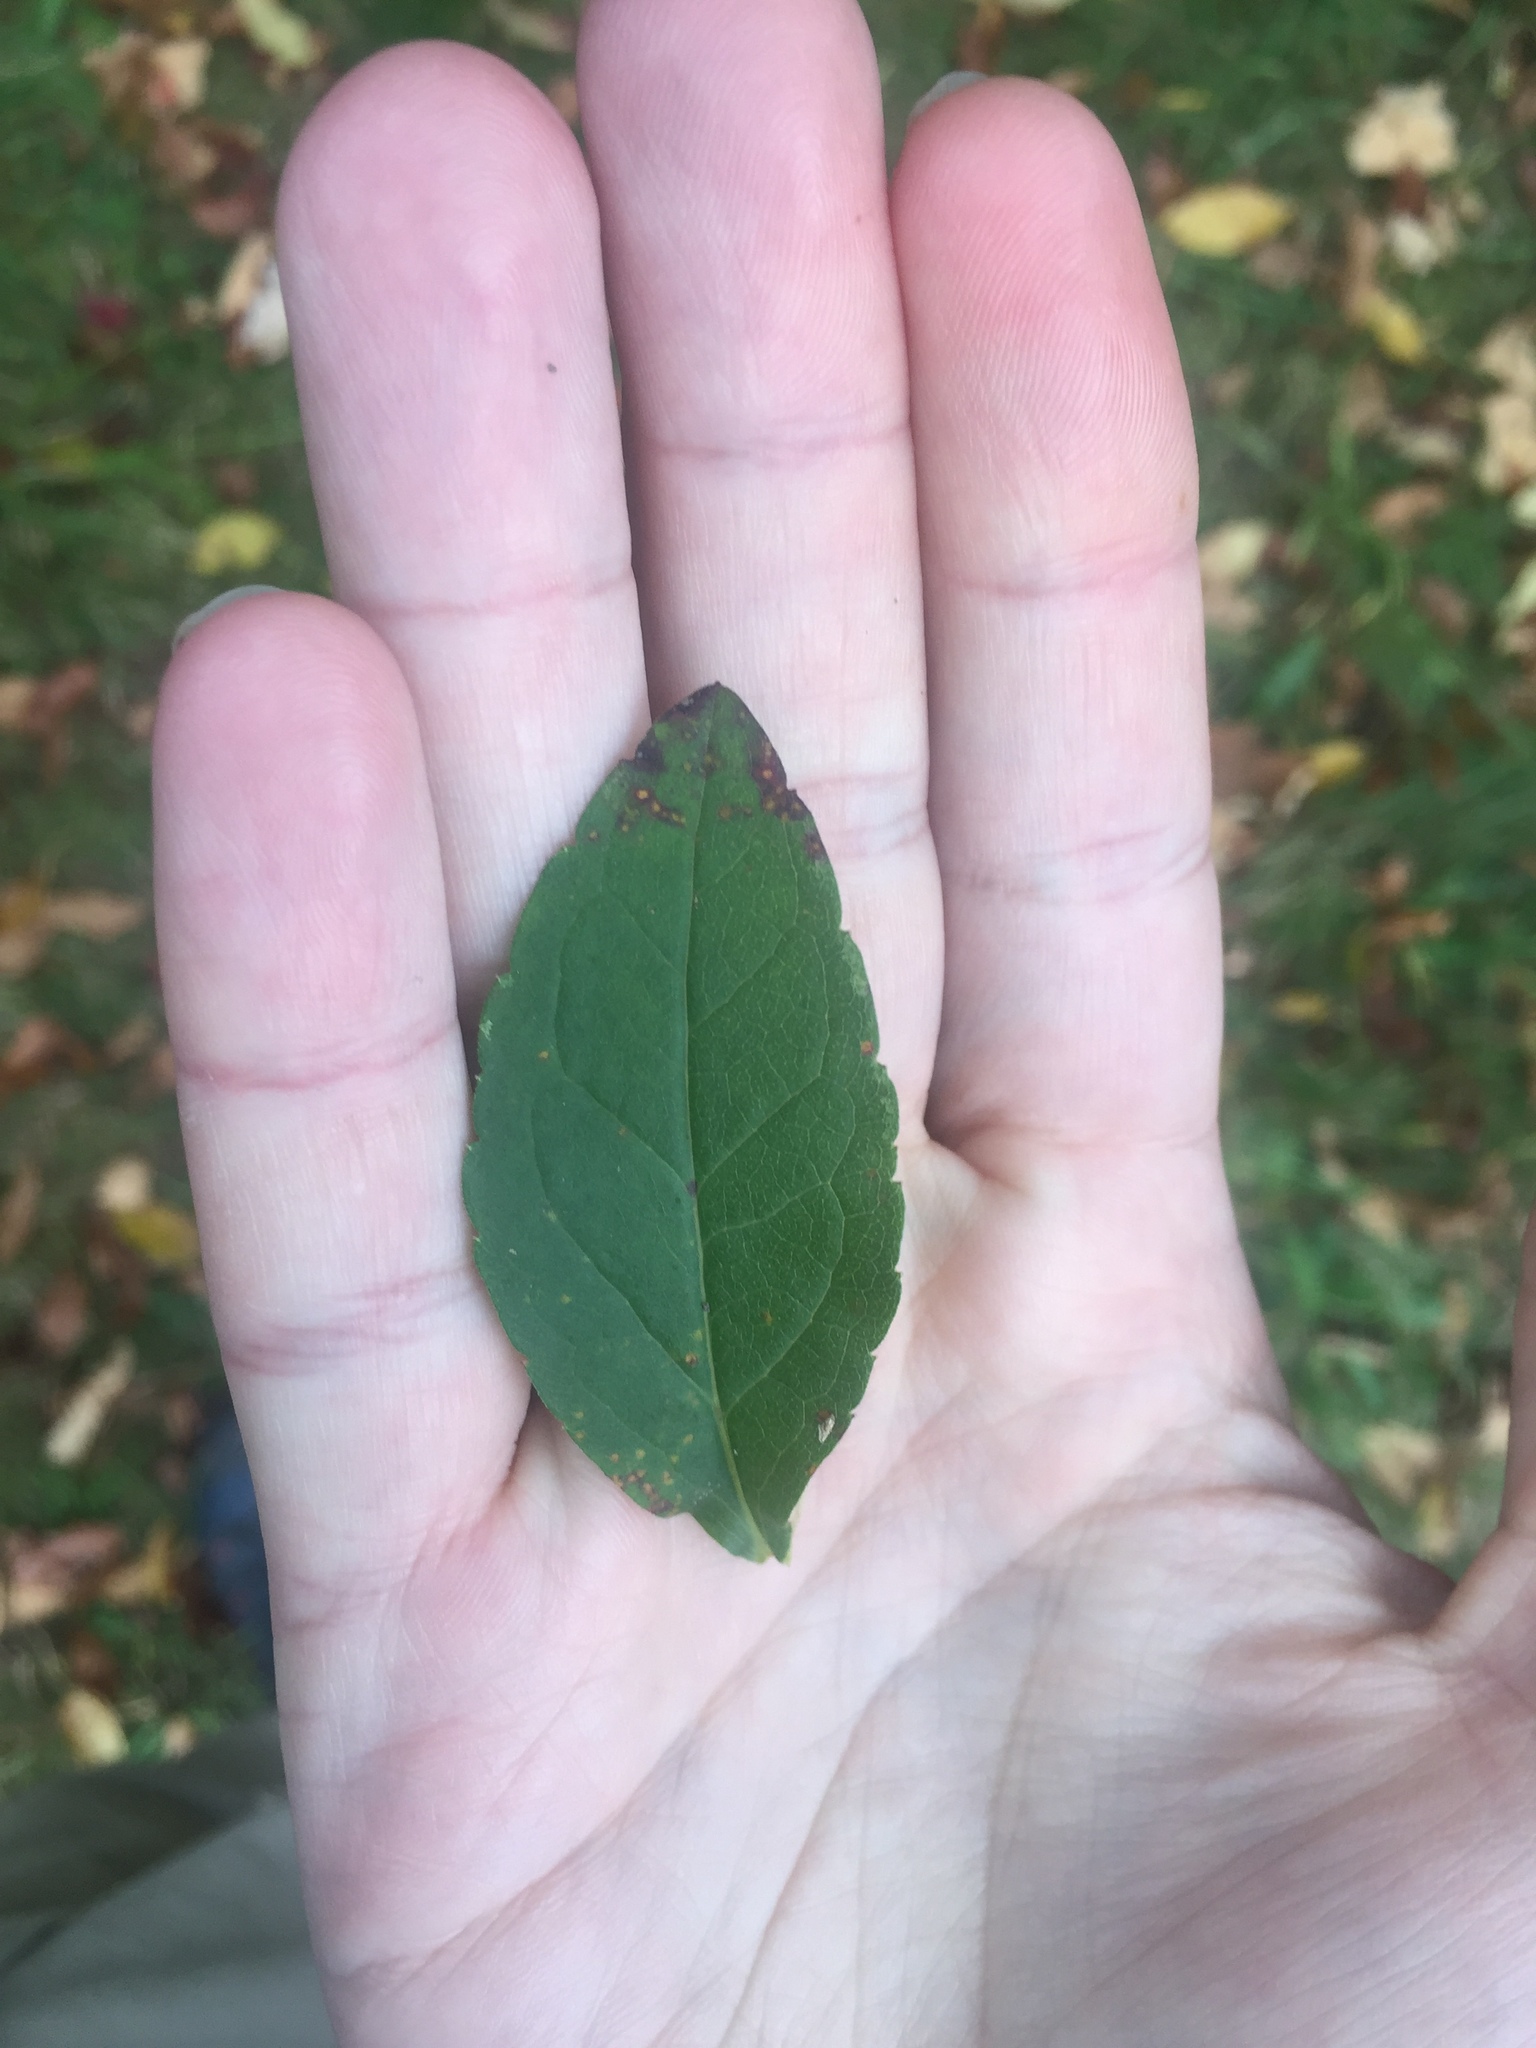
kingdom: Plantae
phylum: Tracheophyta
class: Magnoliopsida
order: Asterales
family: Asteraceae
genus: Solidago
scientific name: Solidago latissimifolia
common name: Elliott's goldenrod
